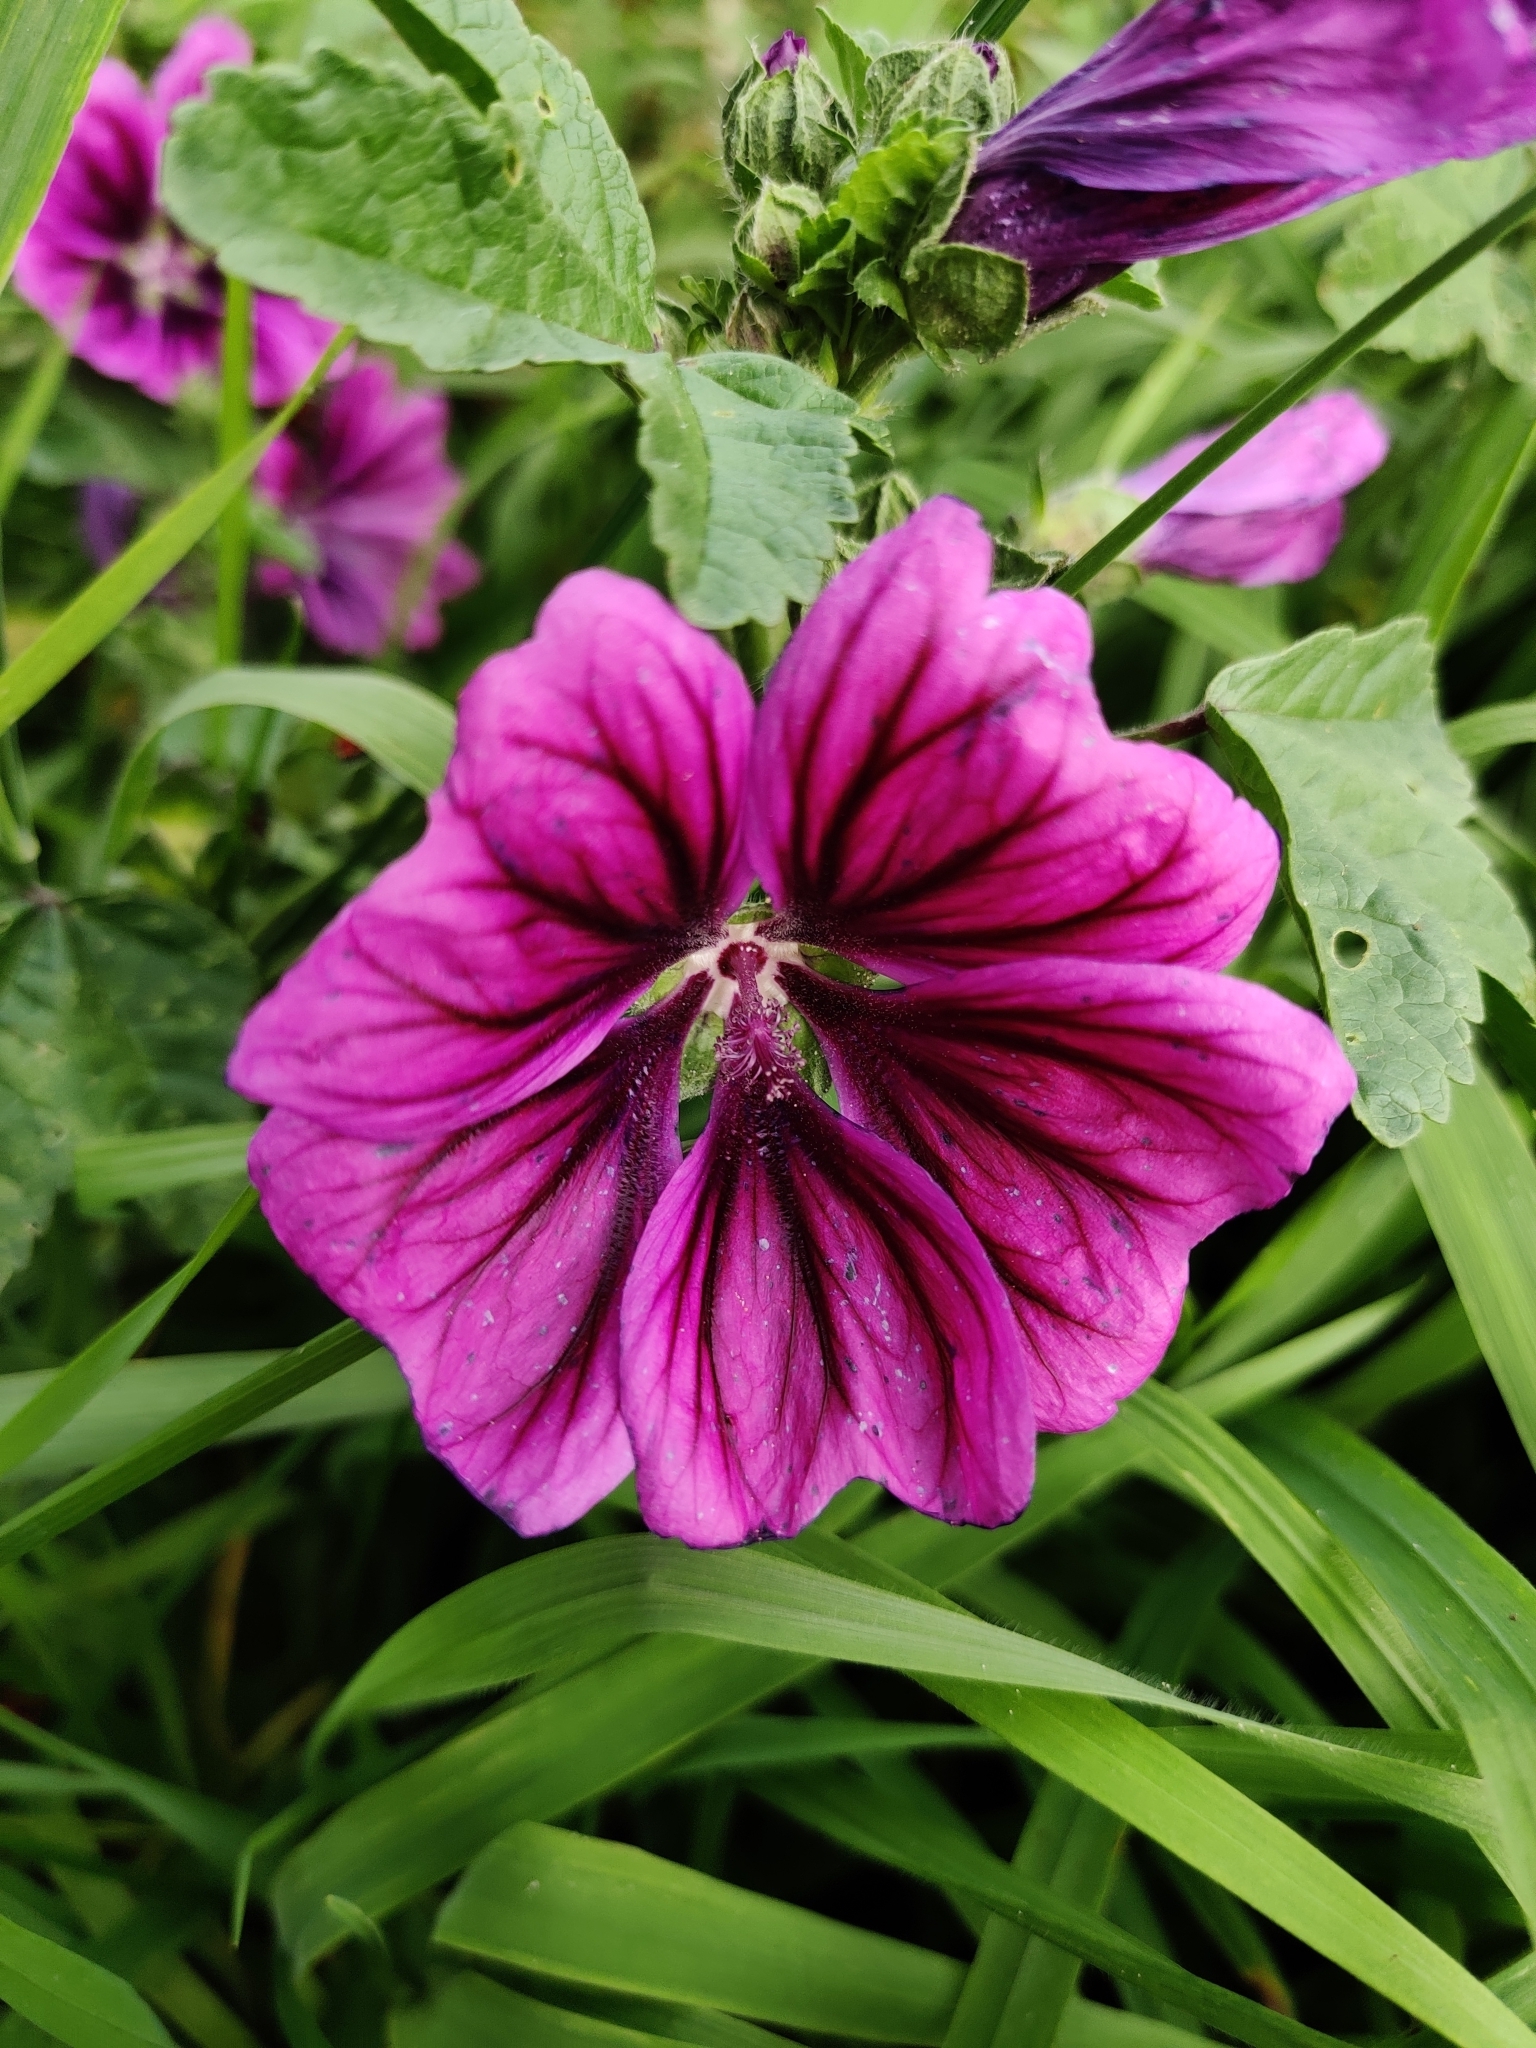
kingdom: Plantae
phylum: Tracheophyta
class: Magnoliopsida
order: Malvales
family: Malvaceae
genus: Malva
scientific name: Malva sylvestris
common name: Common mallow
